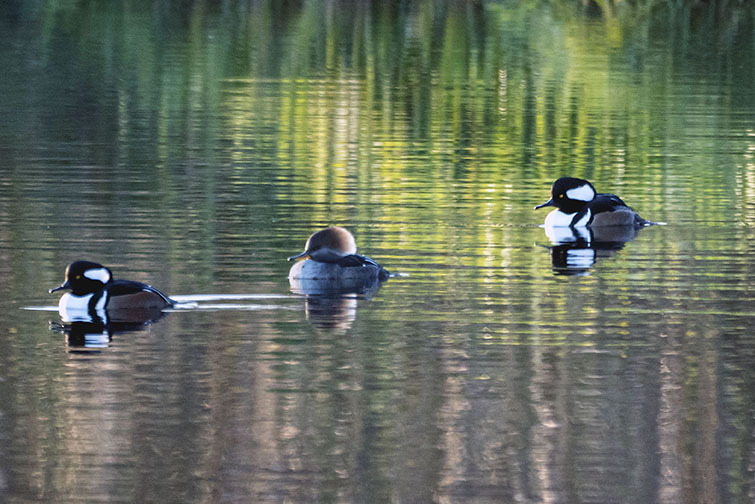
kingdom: Animalia
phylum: Chordata
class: Aves
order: Anseriformes
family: Anatidae
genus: Lophodytes
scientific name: Lophodytes cucullatus
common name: Hooded merganser
